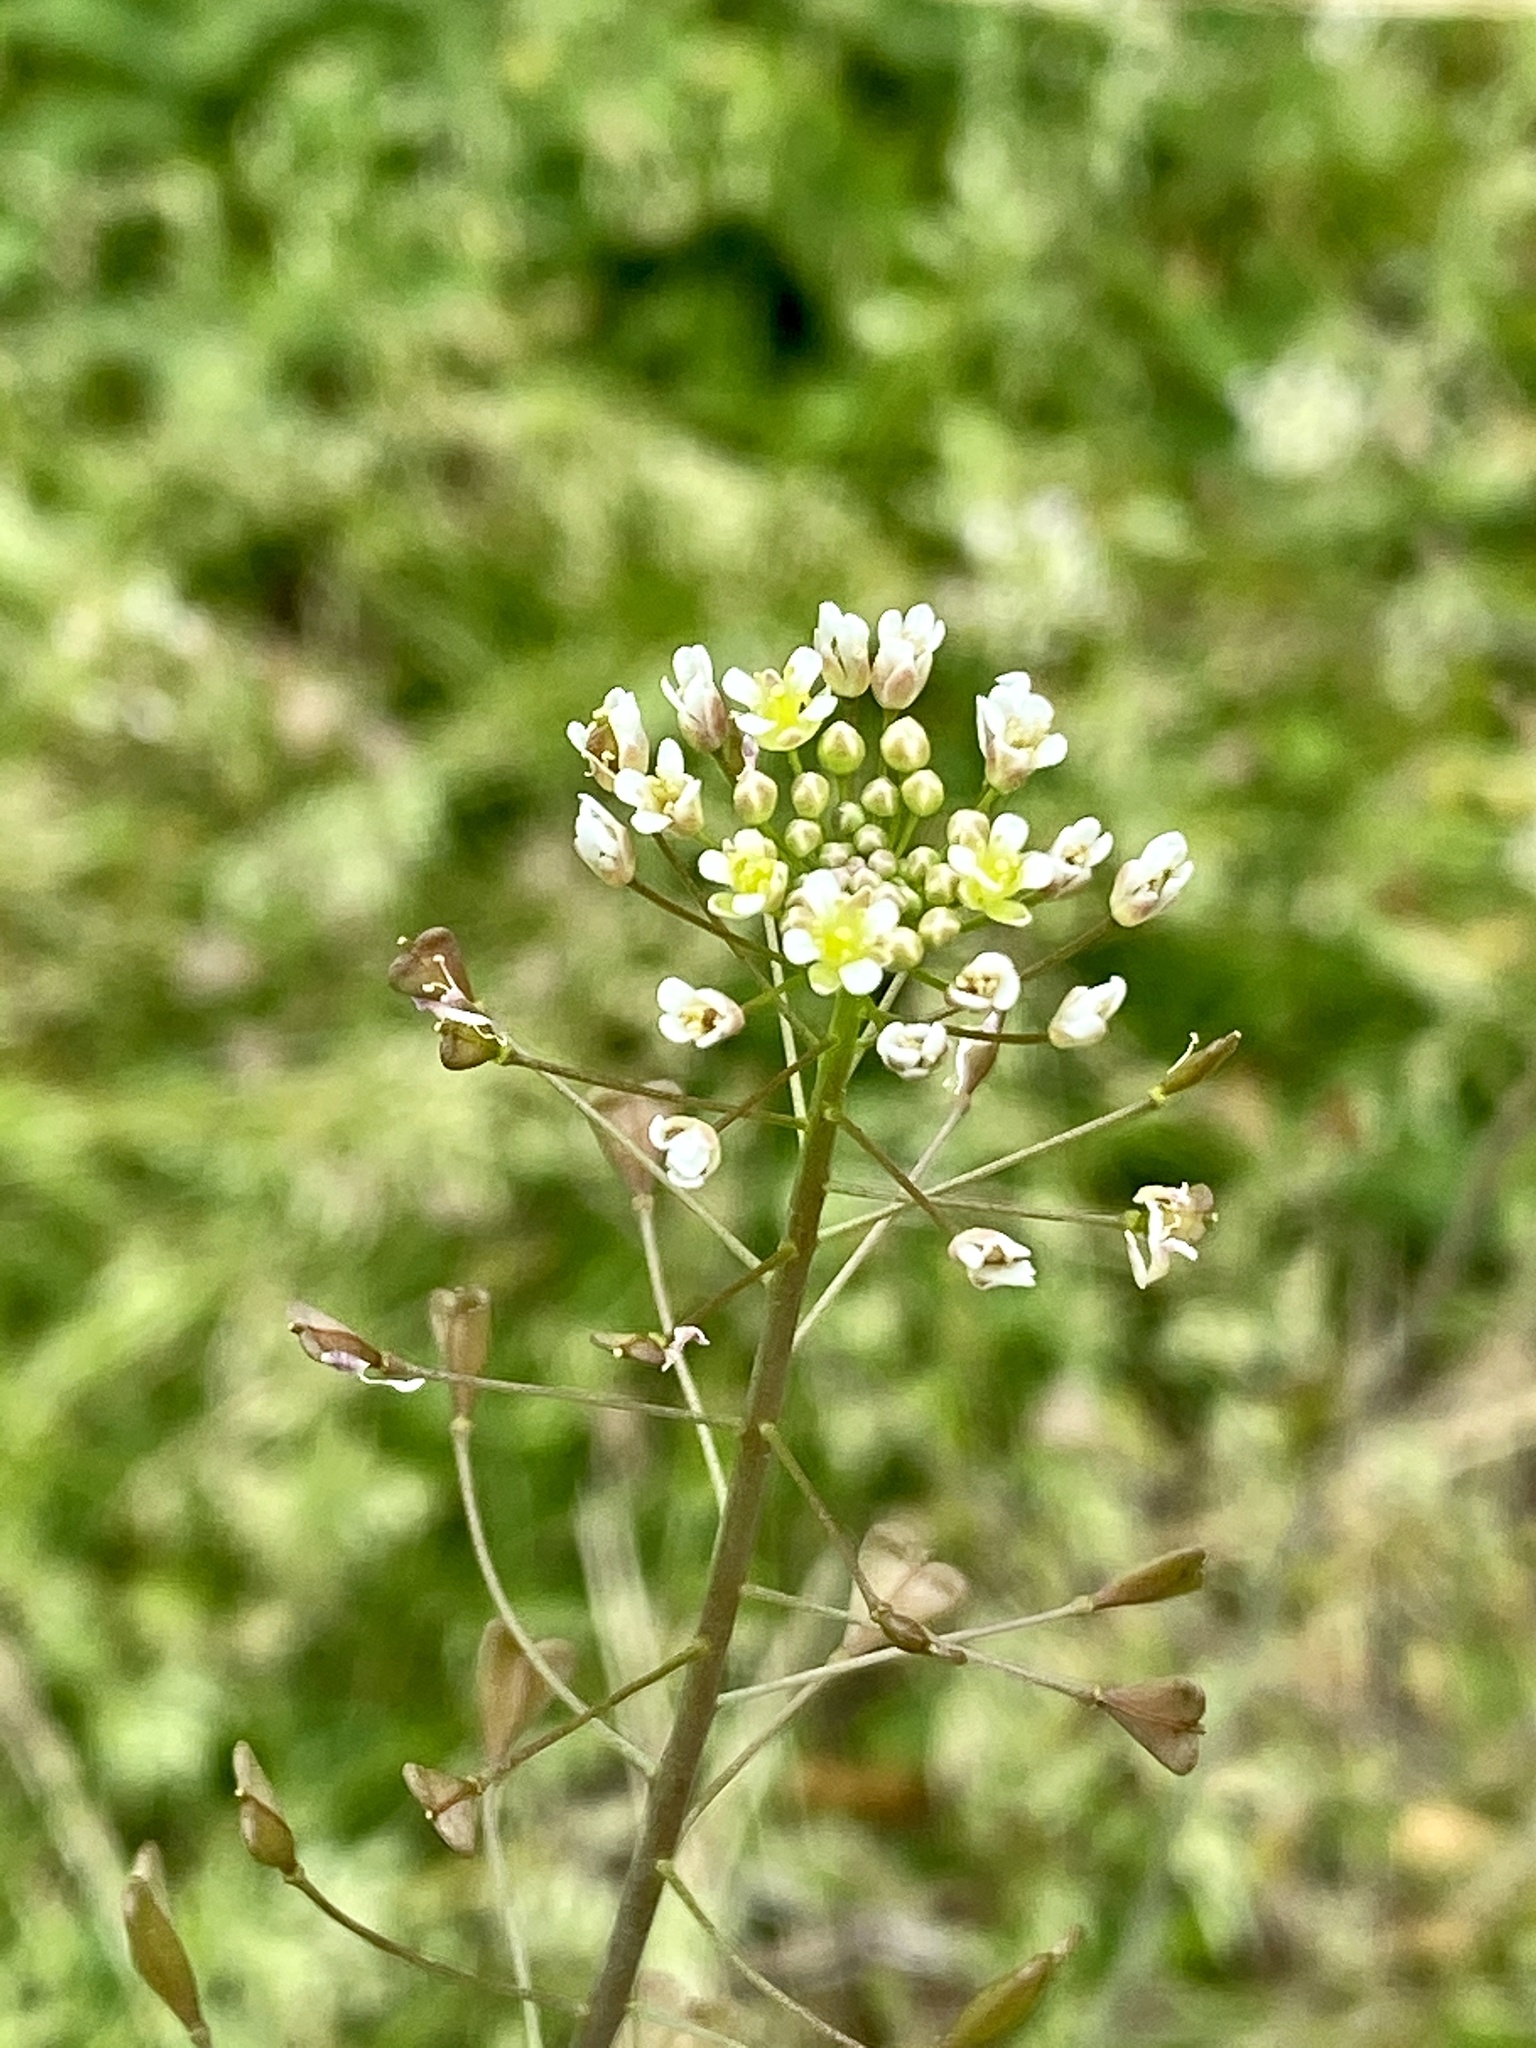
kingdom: Plantae
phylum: Tracheophyta
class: Magnoliopsida
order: Brassicales
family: Brassicaceae
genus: Capsella
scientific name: Capsella bursa-pastoris
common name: Shepherd's purse
